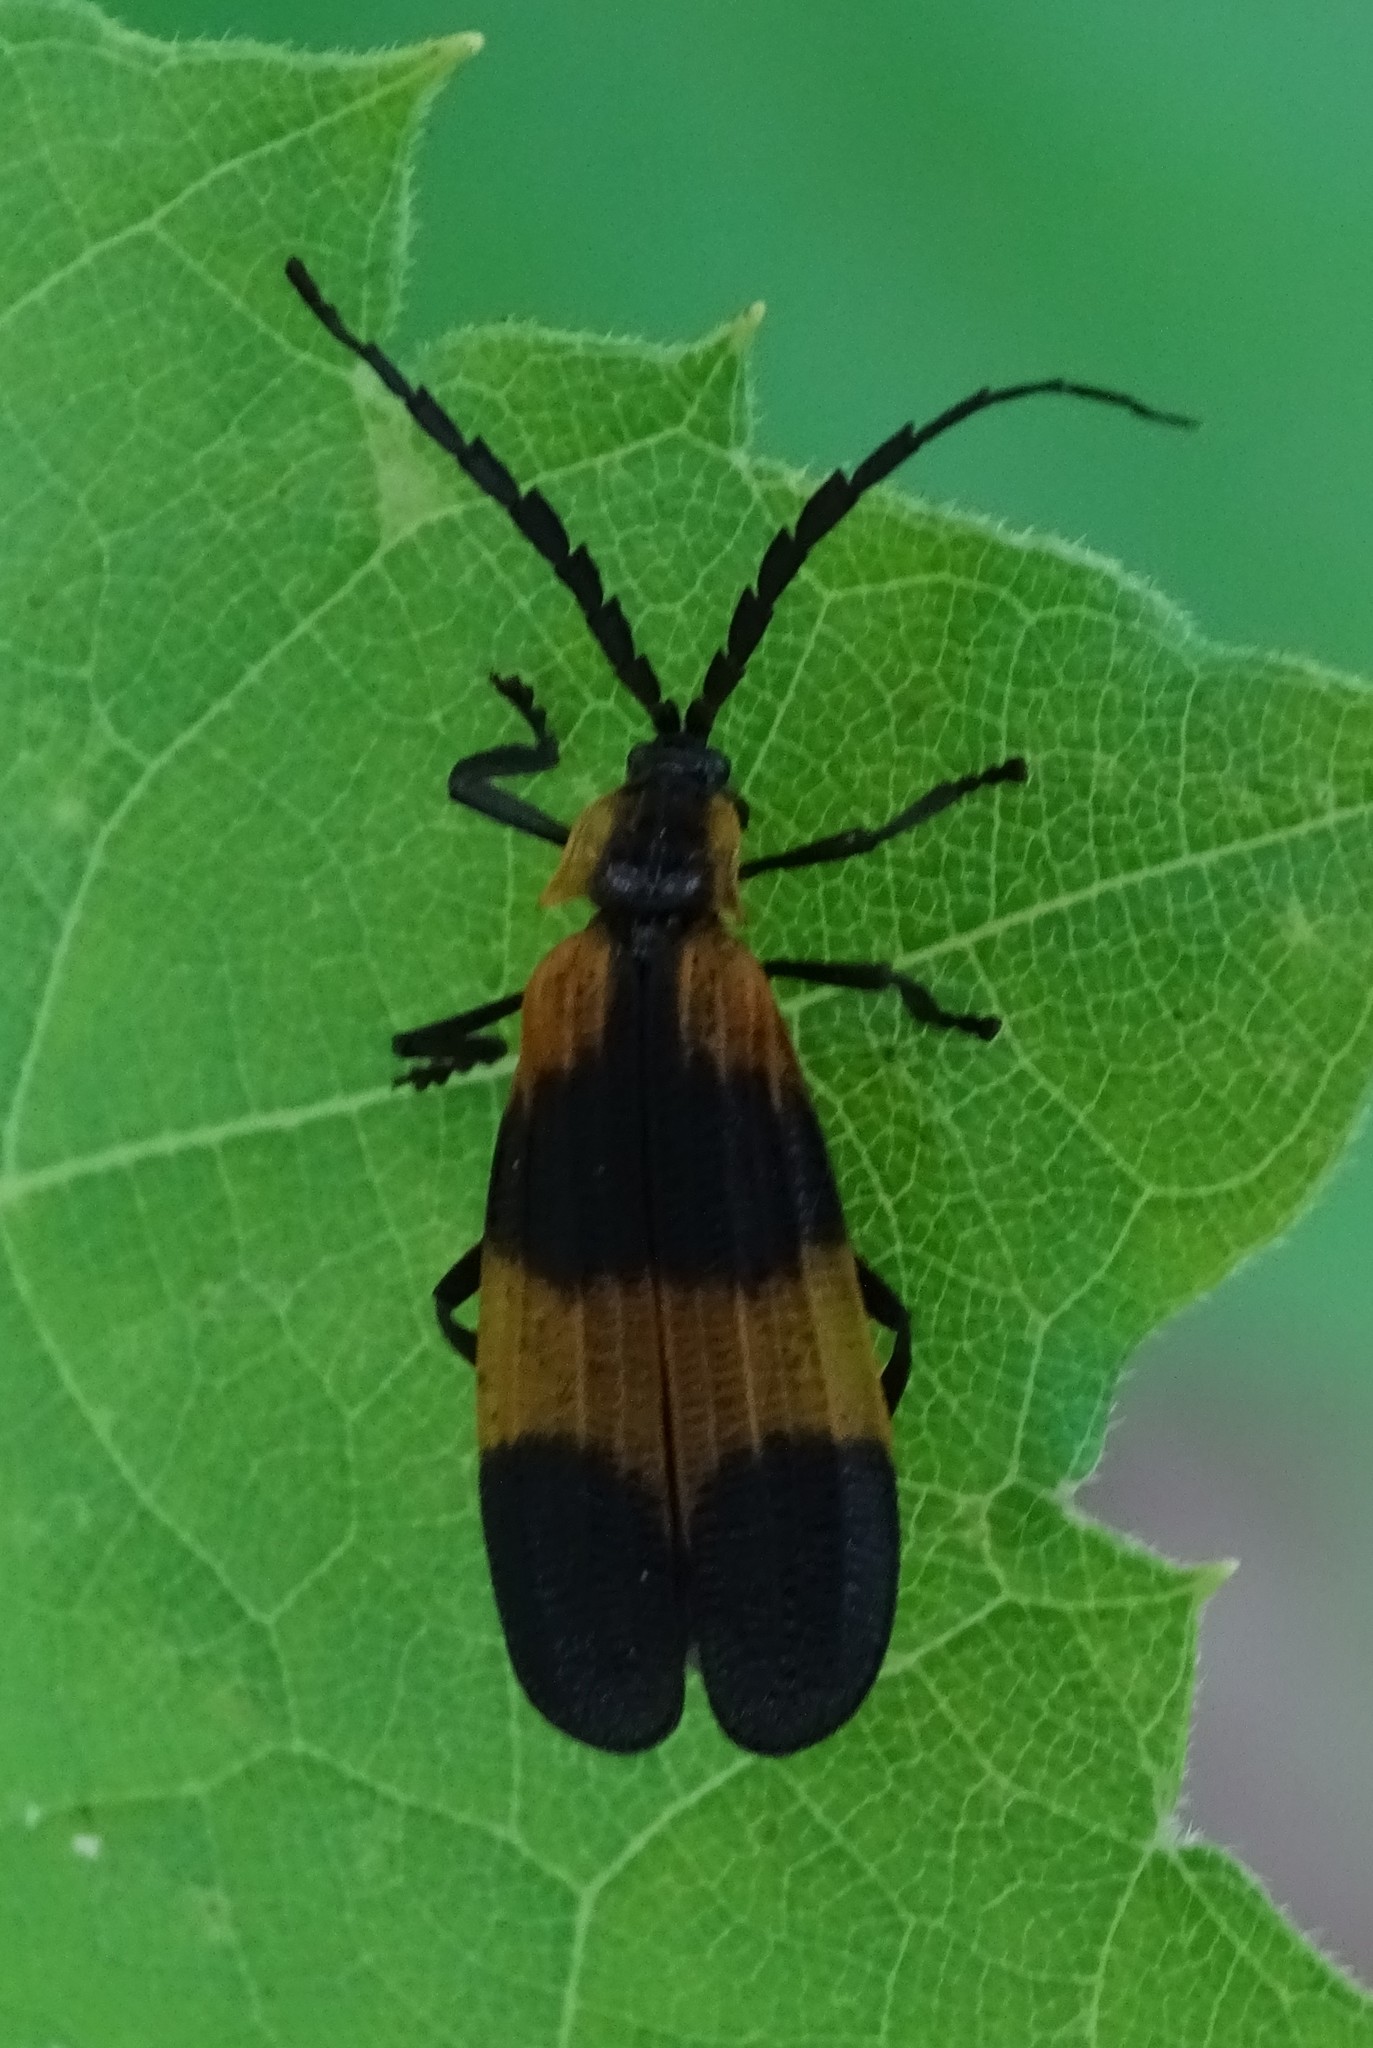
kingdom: Animalia
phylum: Arthropoda
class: Insecta
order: Coleoptera
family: Lycidae
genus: Calopteron
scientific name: Calopteron reticulatum
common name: Banded net-winged beetle
